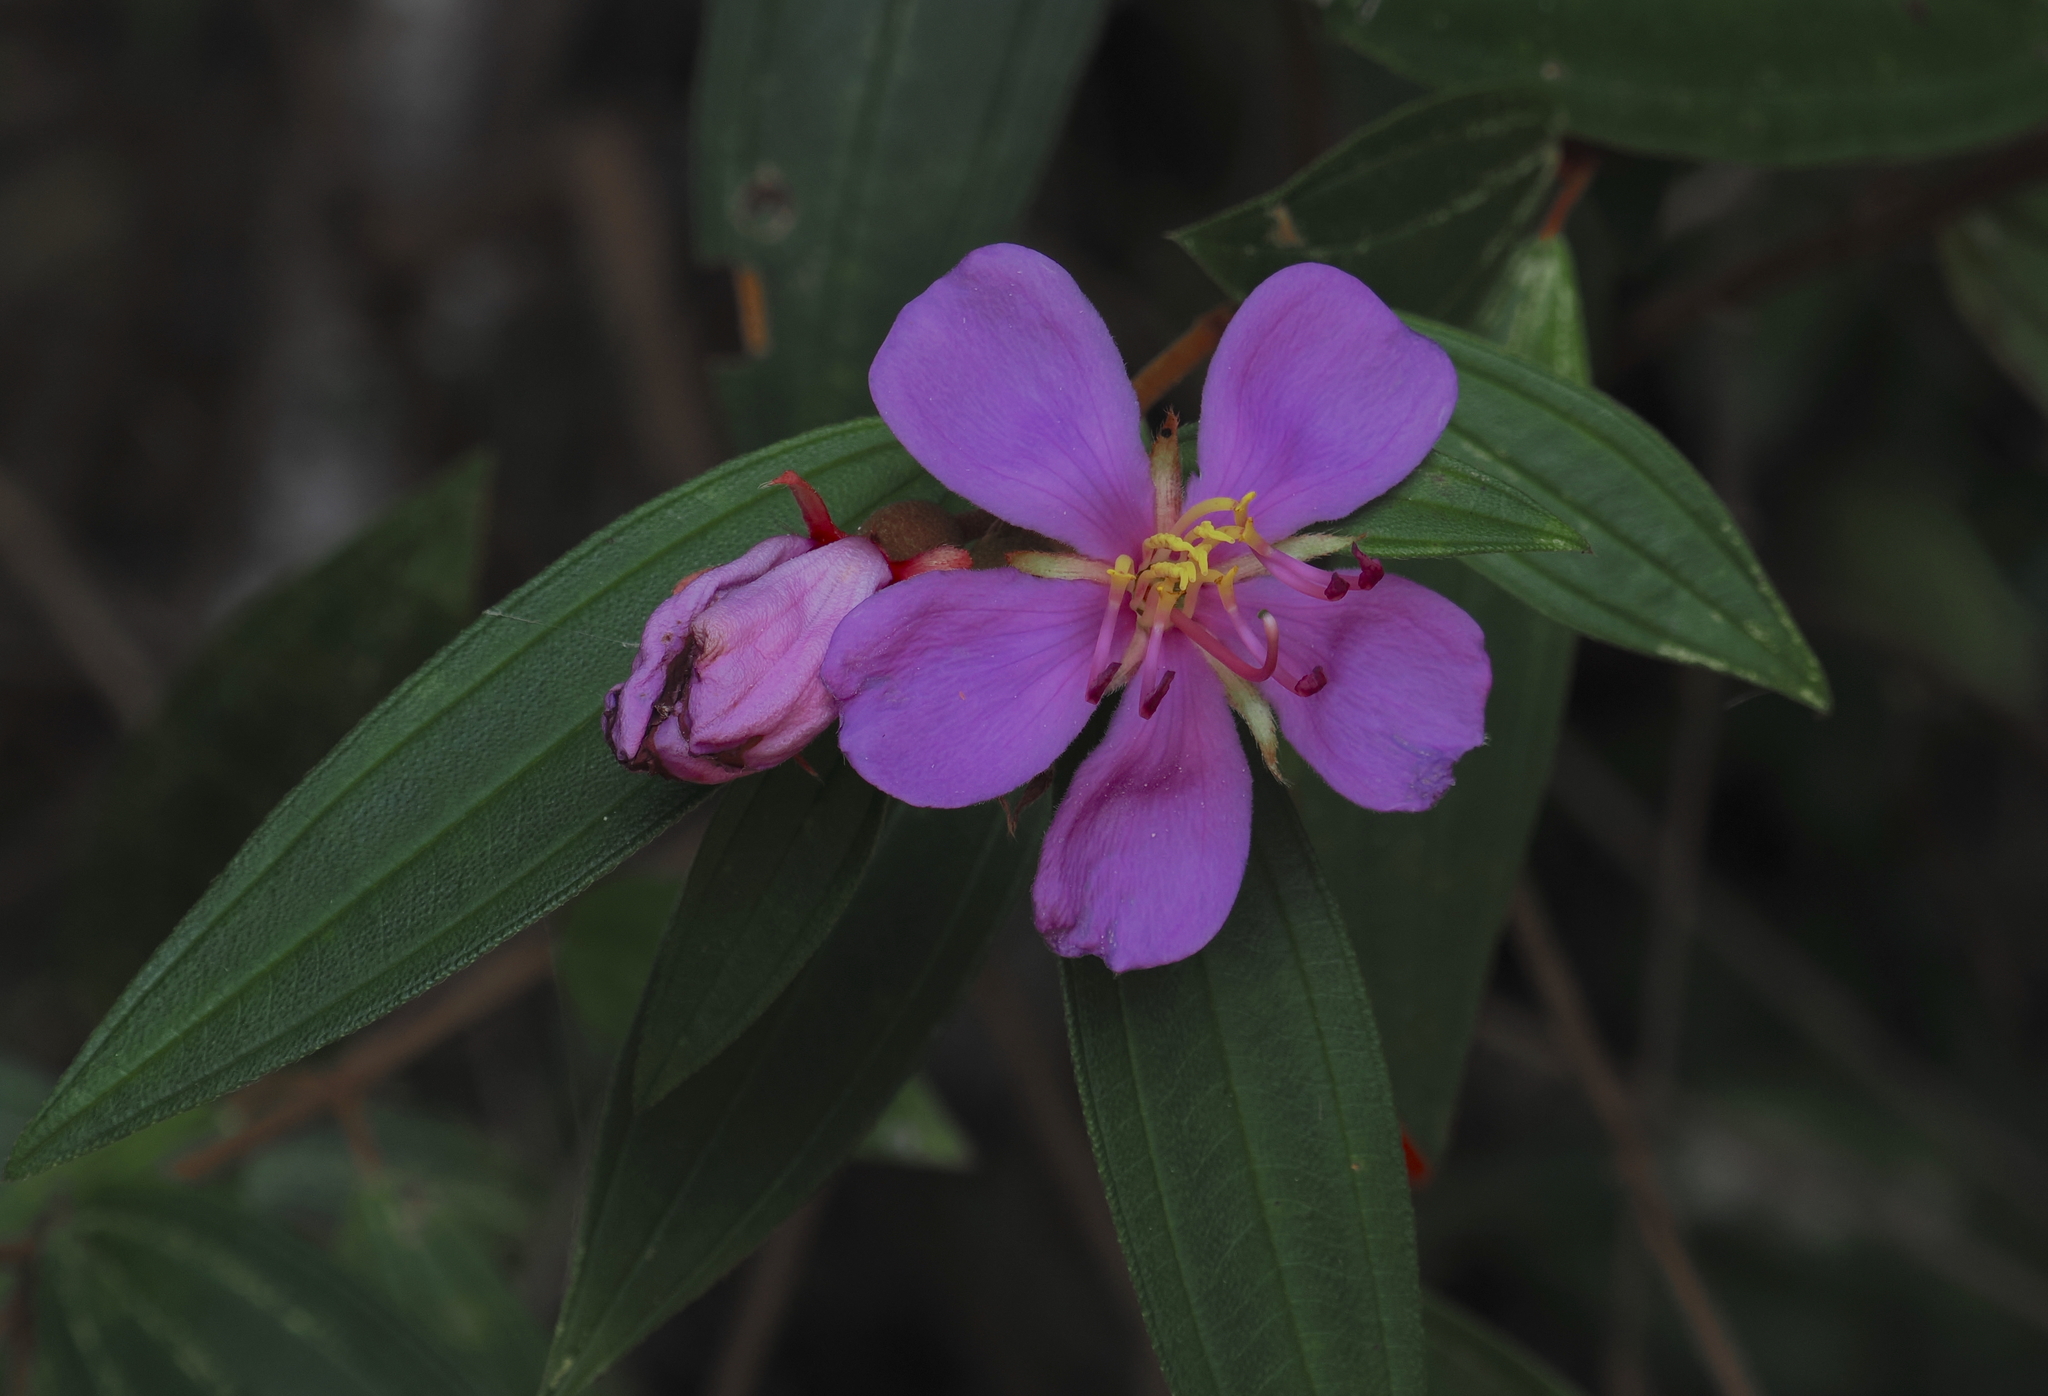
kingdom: Plantae
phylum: Tracheophyta
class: Magnoliopsida
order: Myrtales
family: Melastomataceae
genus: Melastoma
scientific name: Melastoma malabathricum
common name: Indian-rhododendron
